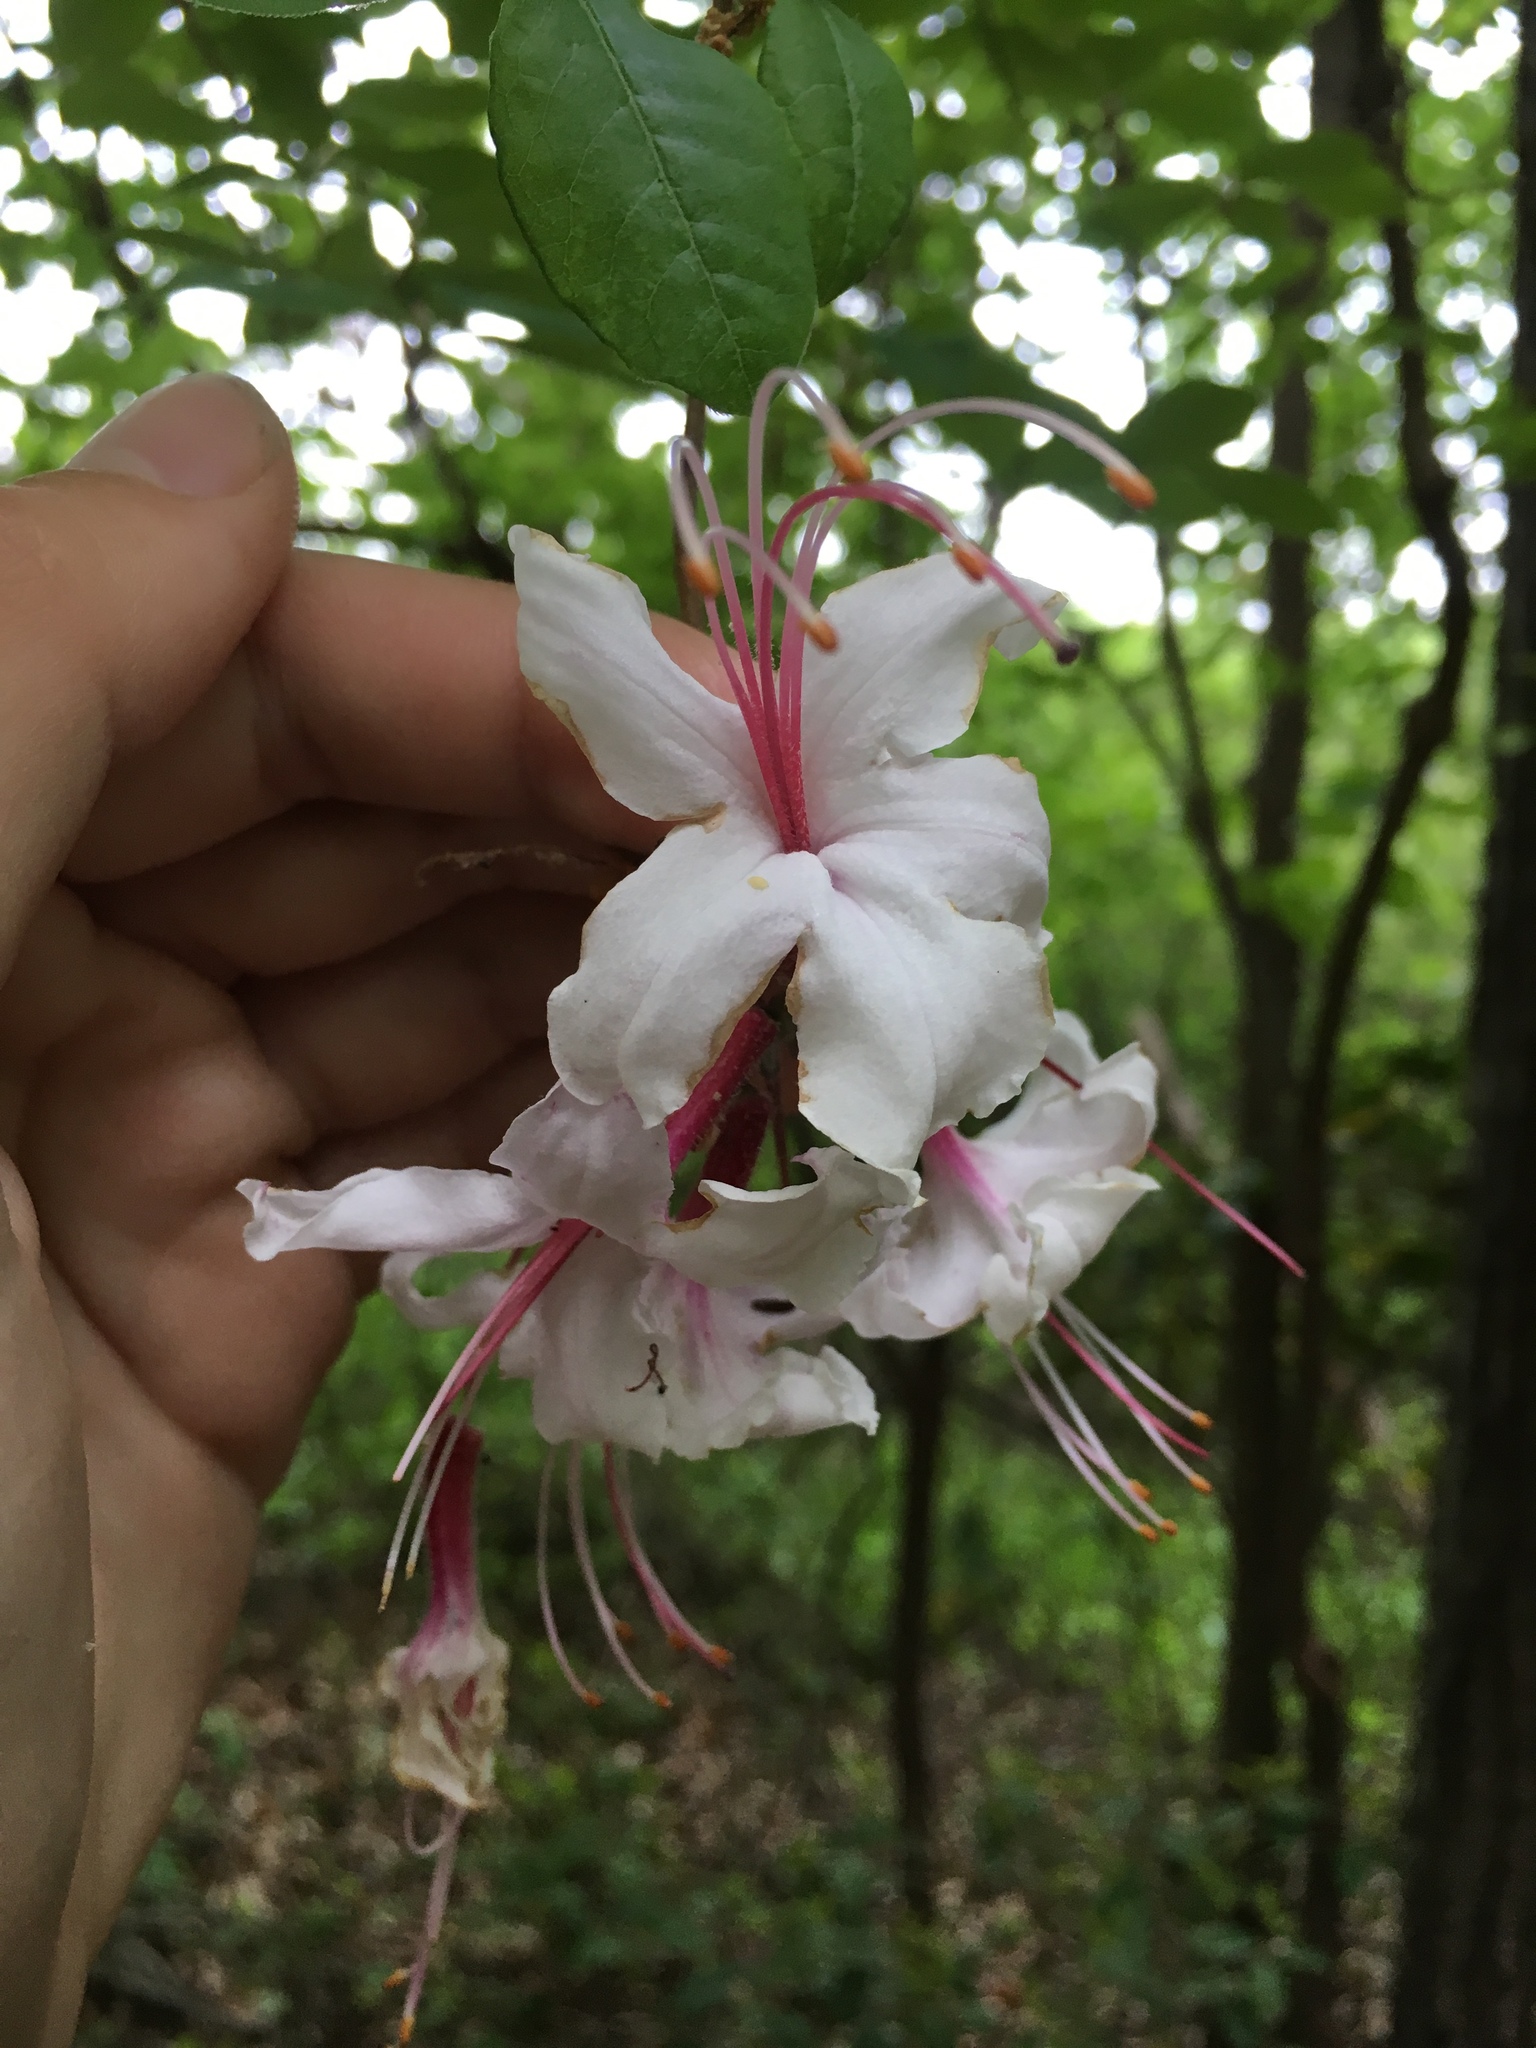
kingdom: Plantae
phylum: Tracheophyta
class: Magnoliopsida
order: Ericales
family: Ericaceae
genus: Rhododendron
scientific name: Rhododendron periclymenoides
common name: Election-pink
